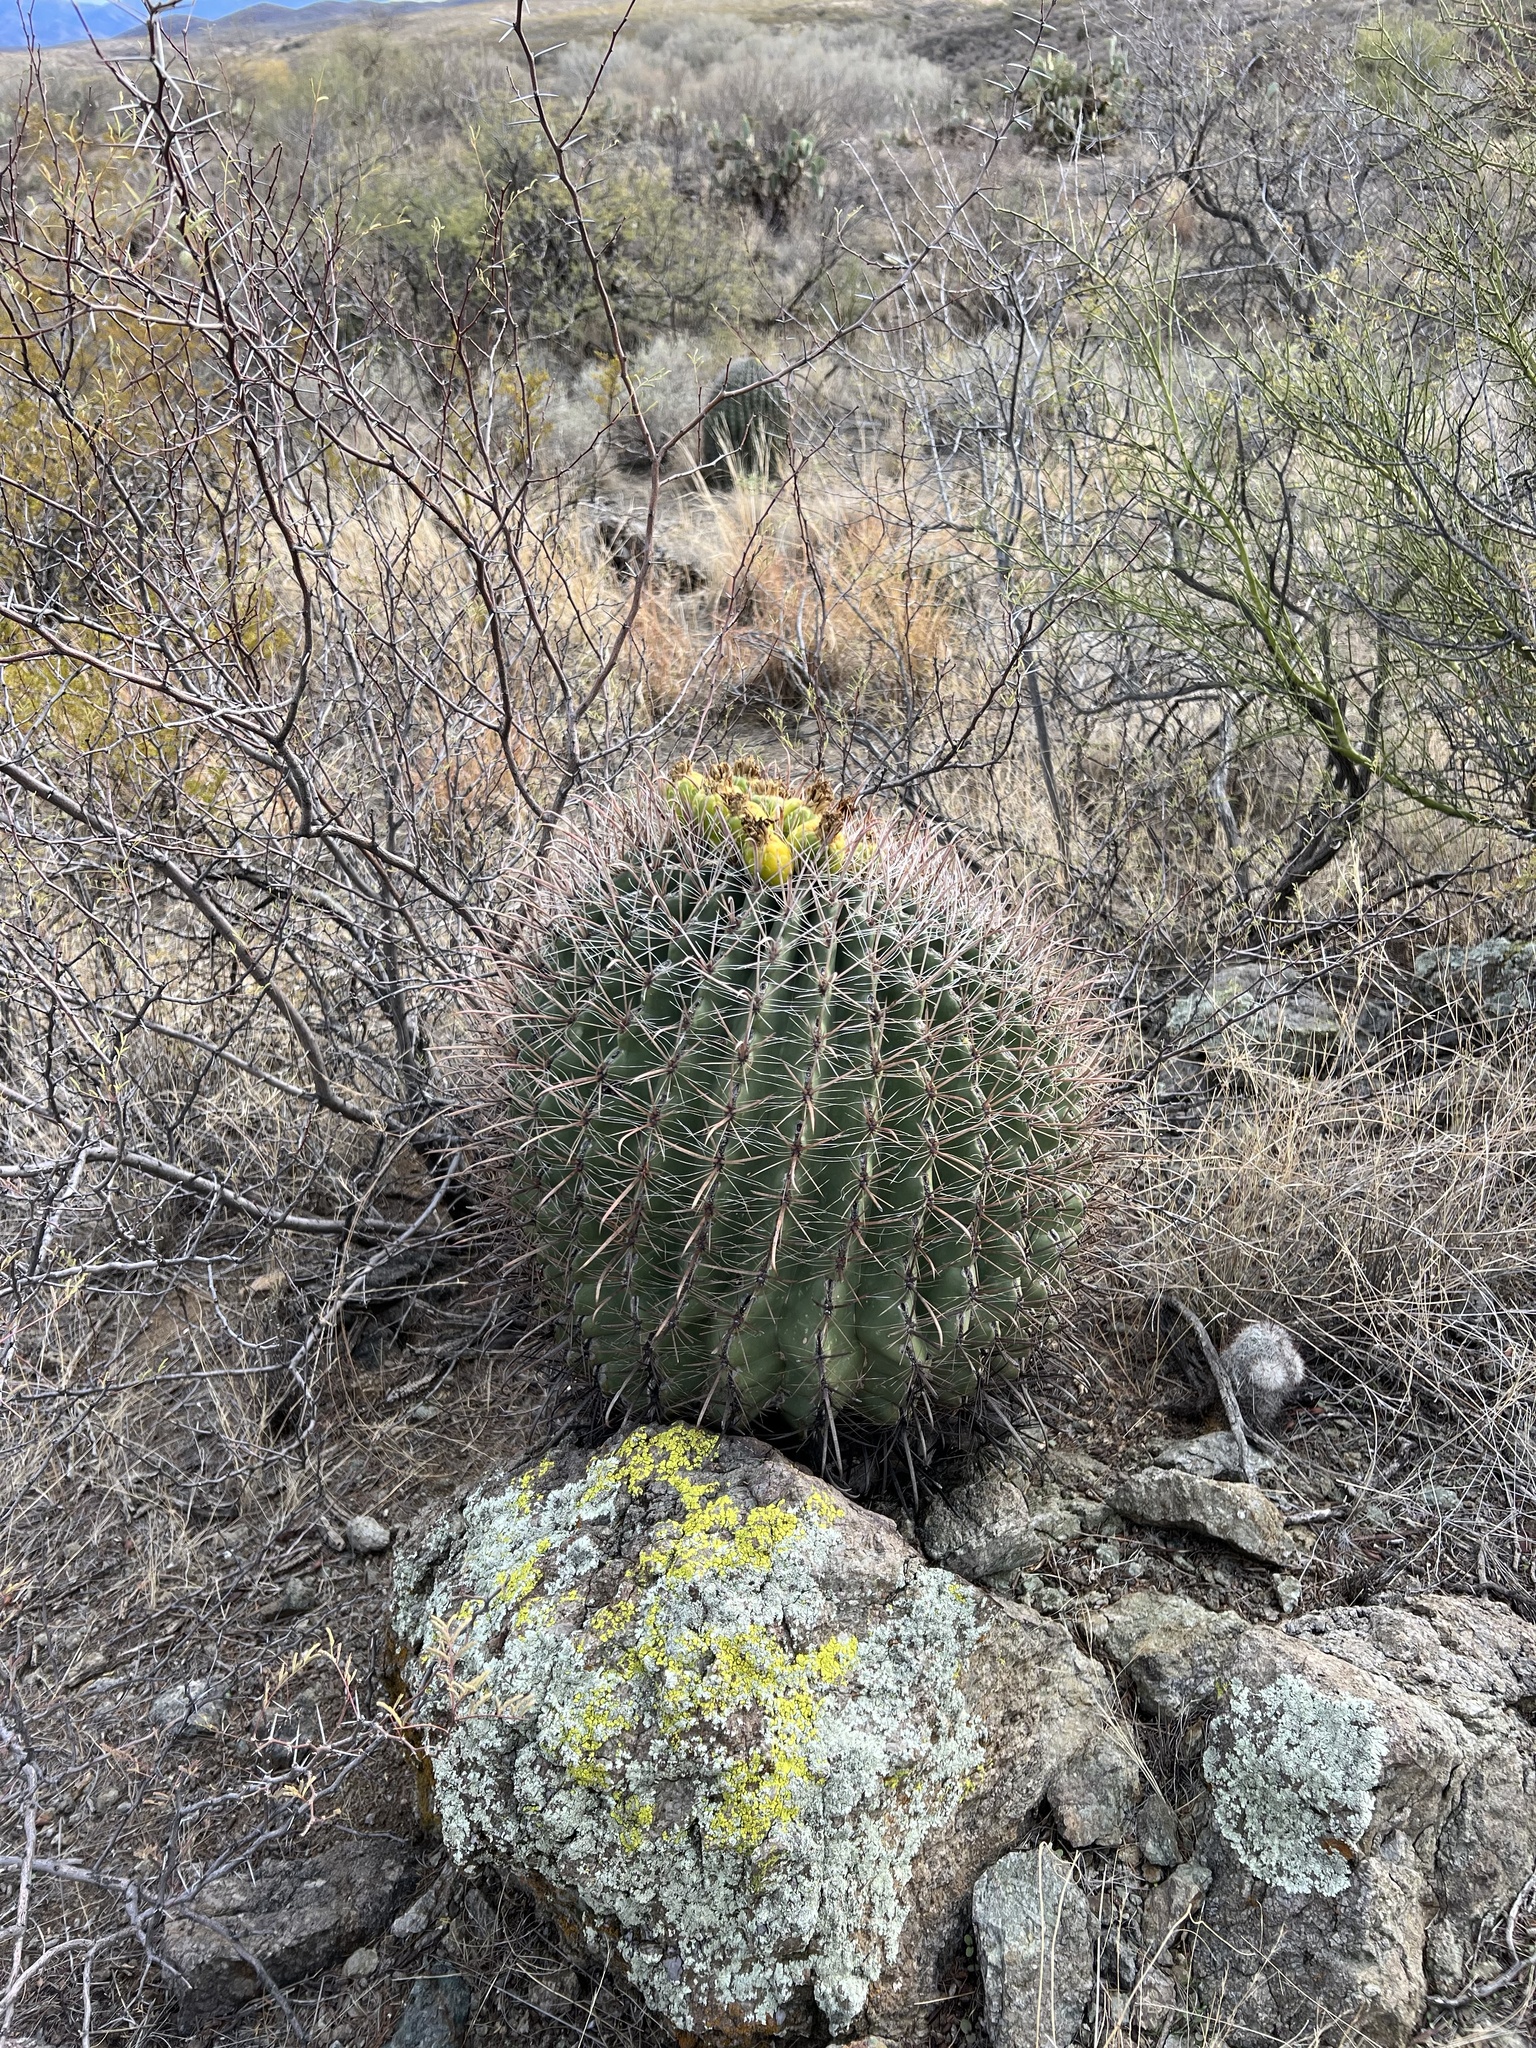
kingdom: Plantae
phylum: Tracheophyta
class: Magnoliopsida
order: Caryophyllales
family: Cactaceae
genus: Ferocactus
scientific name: Ferocactus wislizeni
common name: Candy barrel cactus
